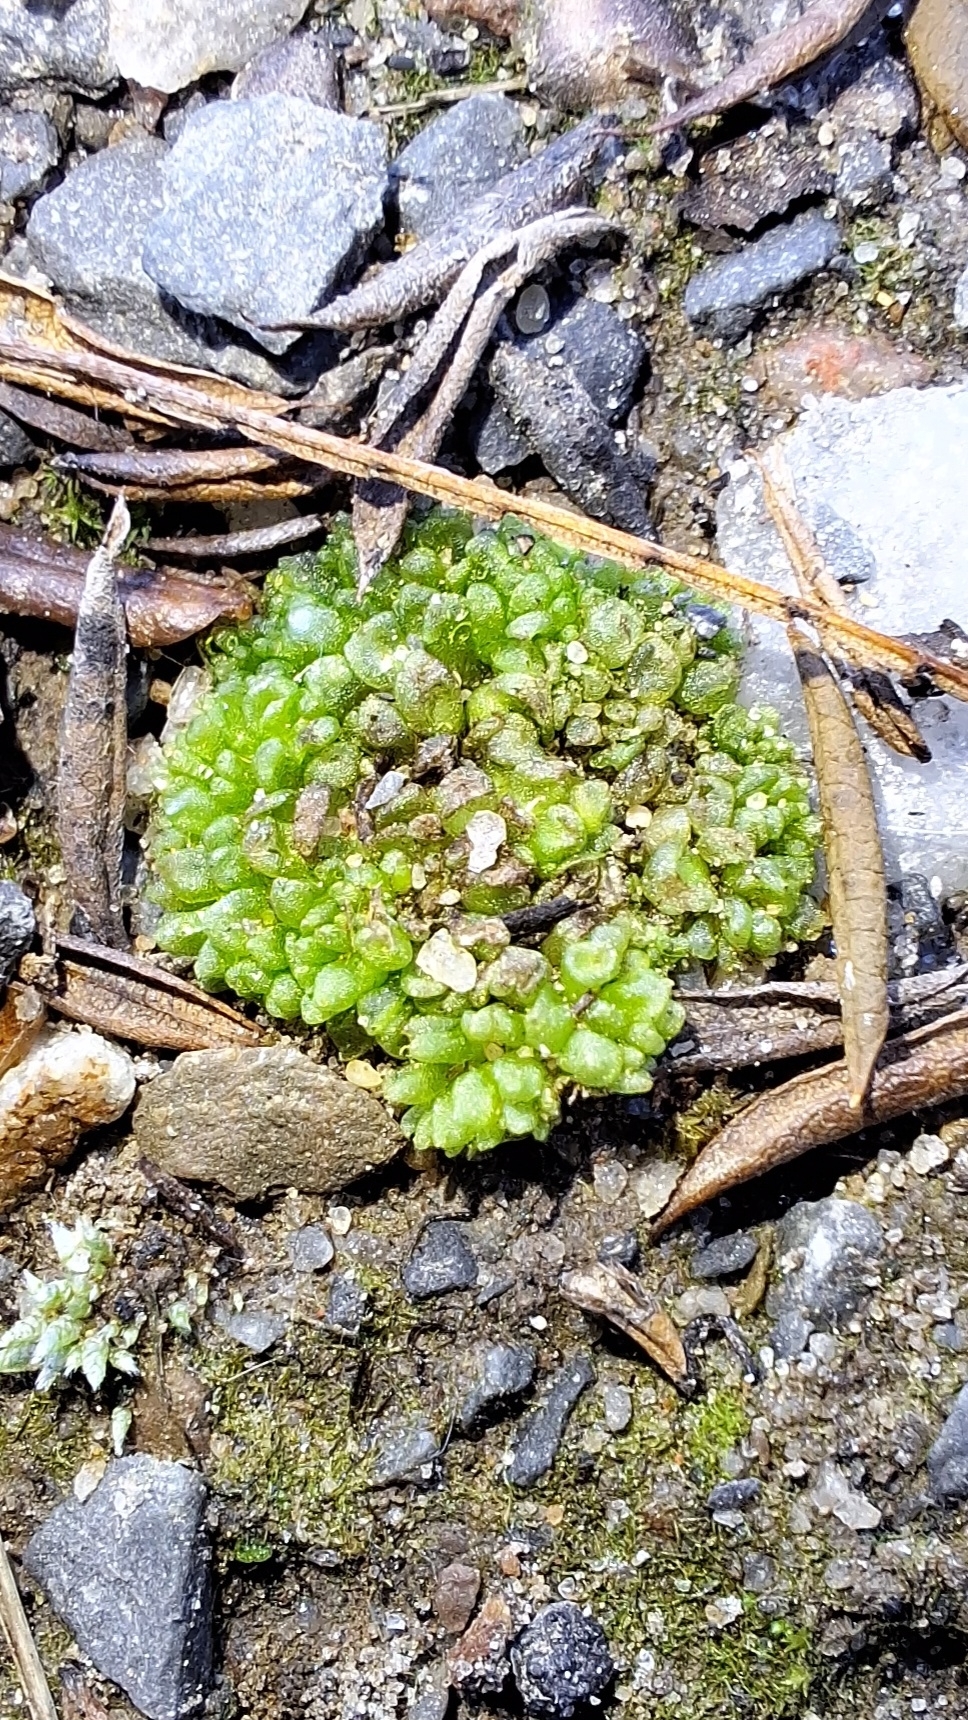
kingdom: Plantae
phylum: Marchantiophyta
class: Marchantiopsida
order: Sphaerocarpales
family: Sphaerocarpaceae
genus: Sphaerocarpos
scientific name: Sphaerocarpos texanus
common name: Texas balloonwort
